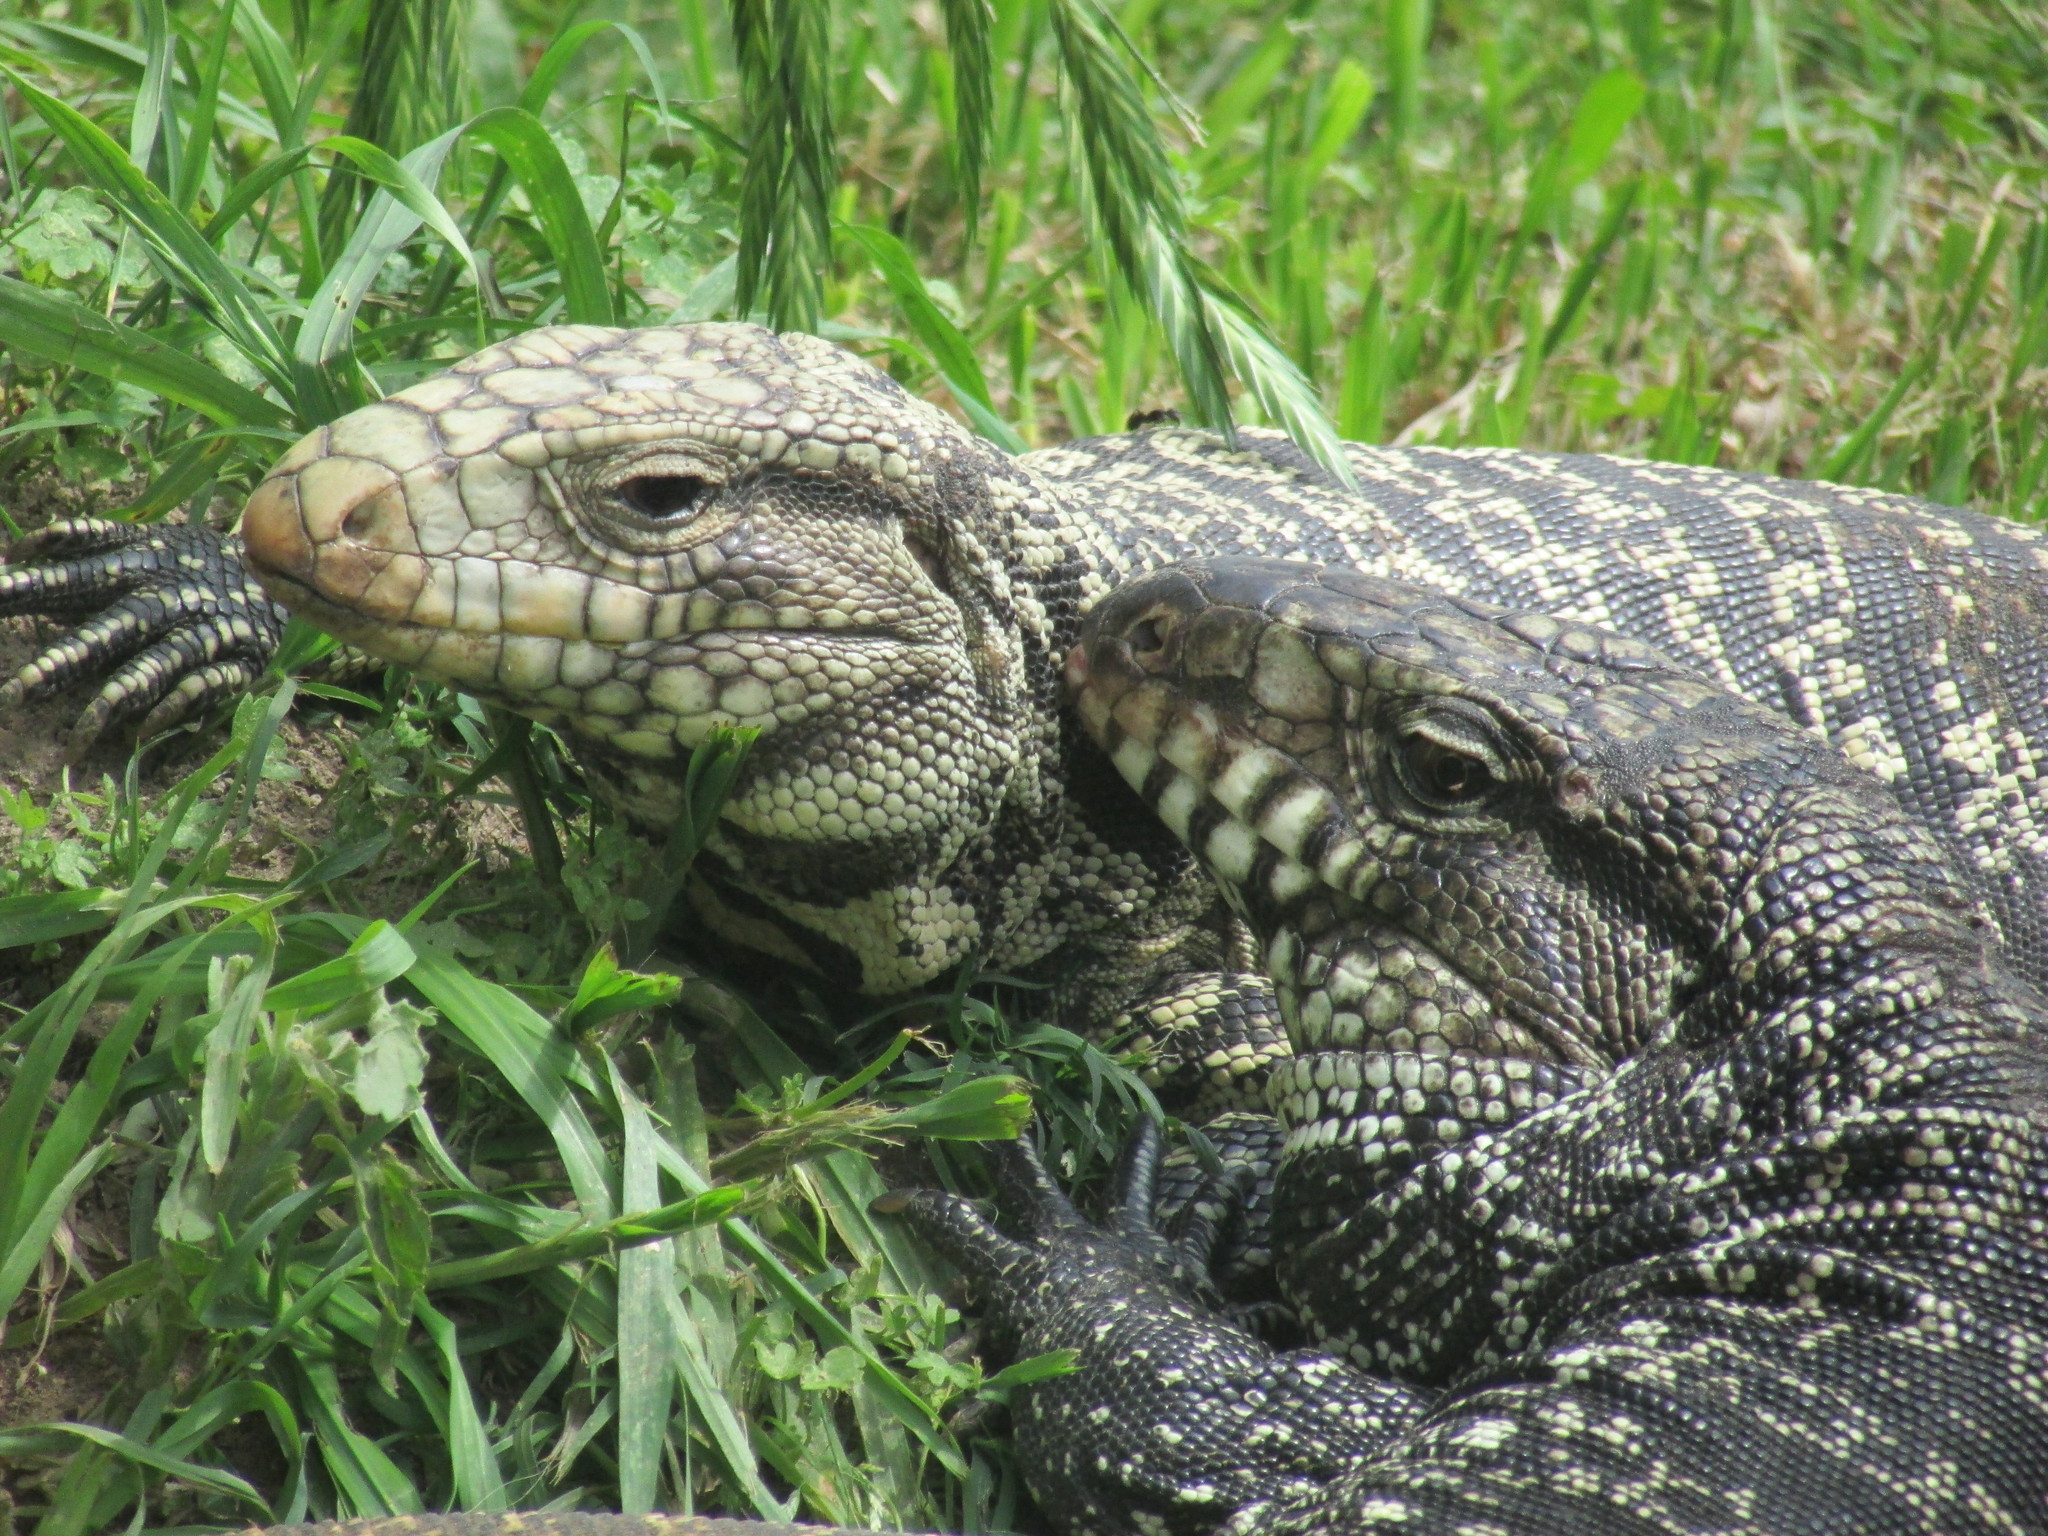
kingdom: Animalia
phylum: Chordata
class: Squamata
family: Teiidae
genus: Salvator
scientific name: Salvator merianae
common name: Argentine black and white tegu
